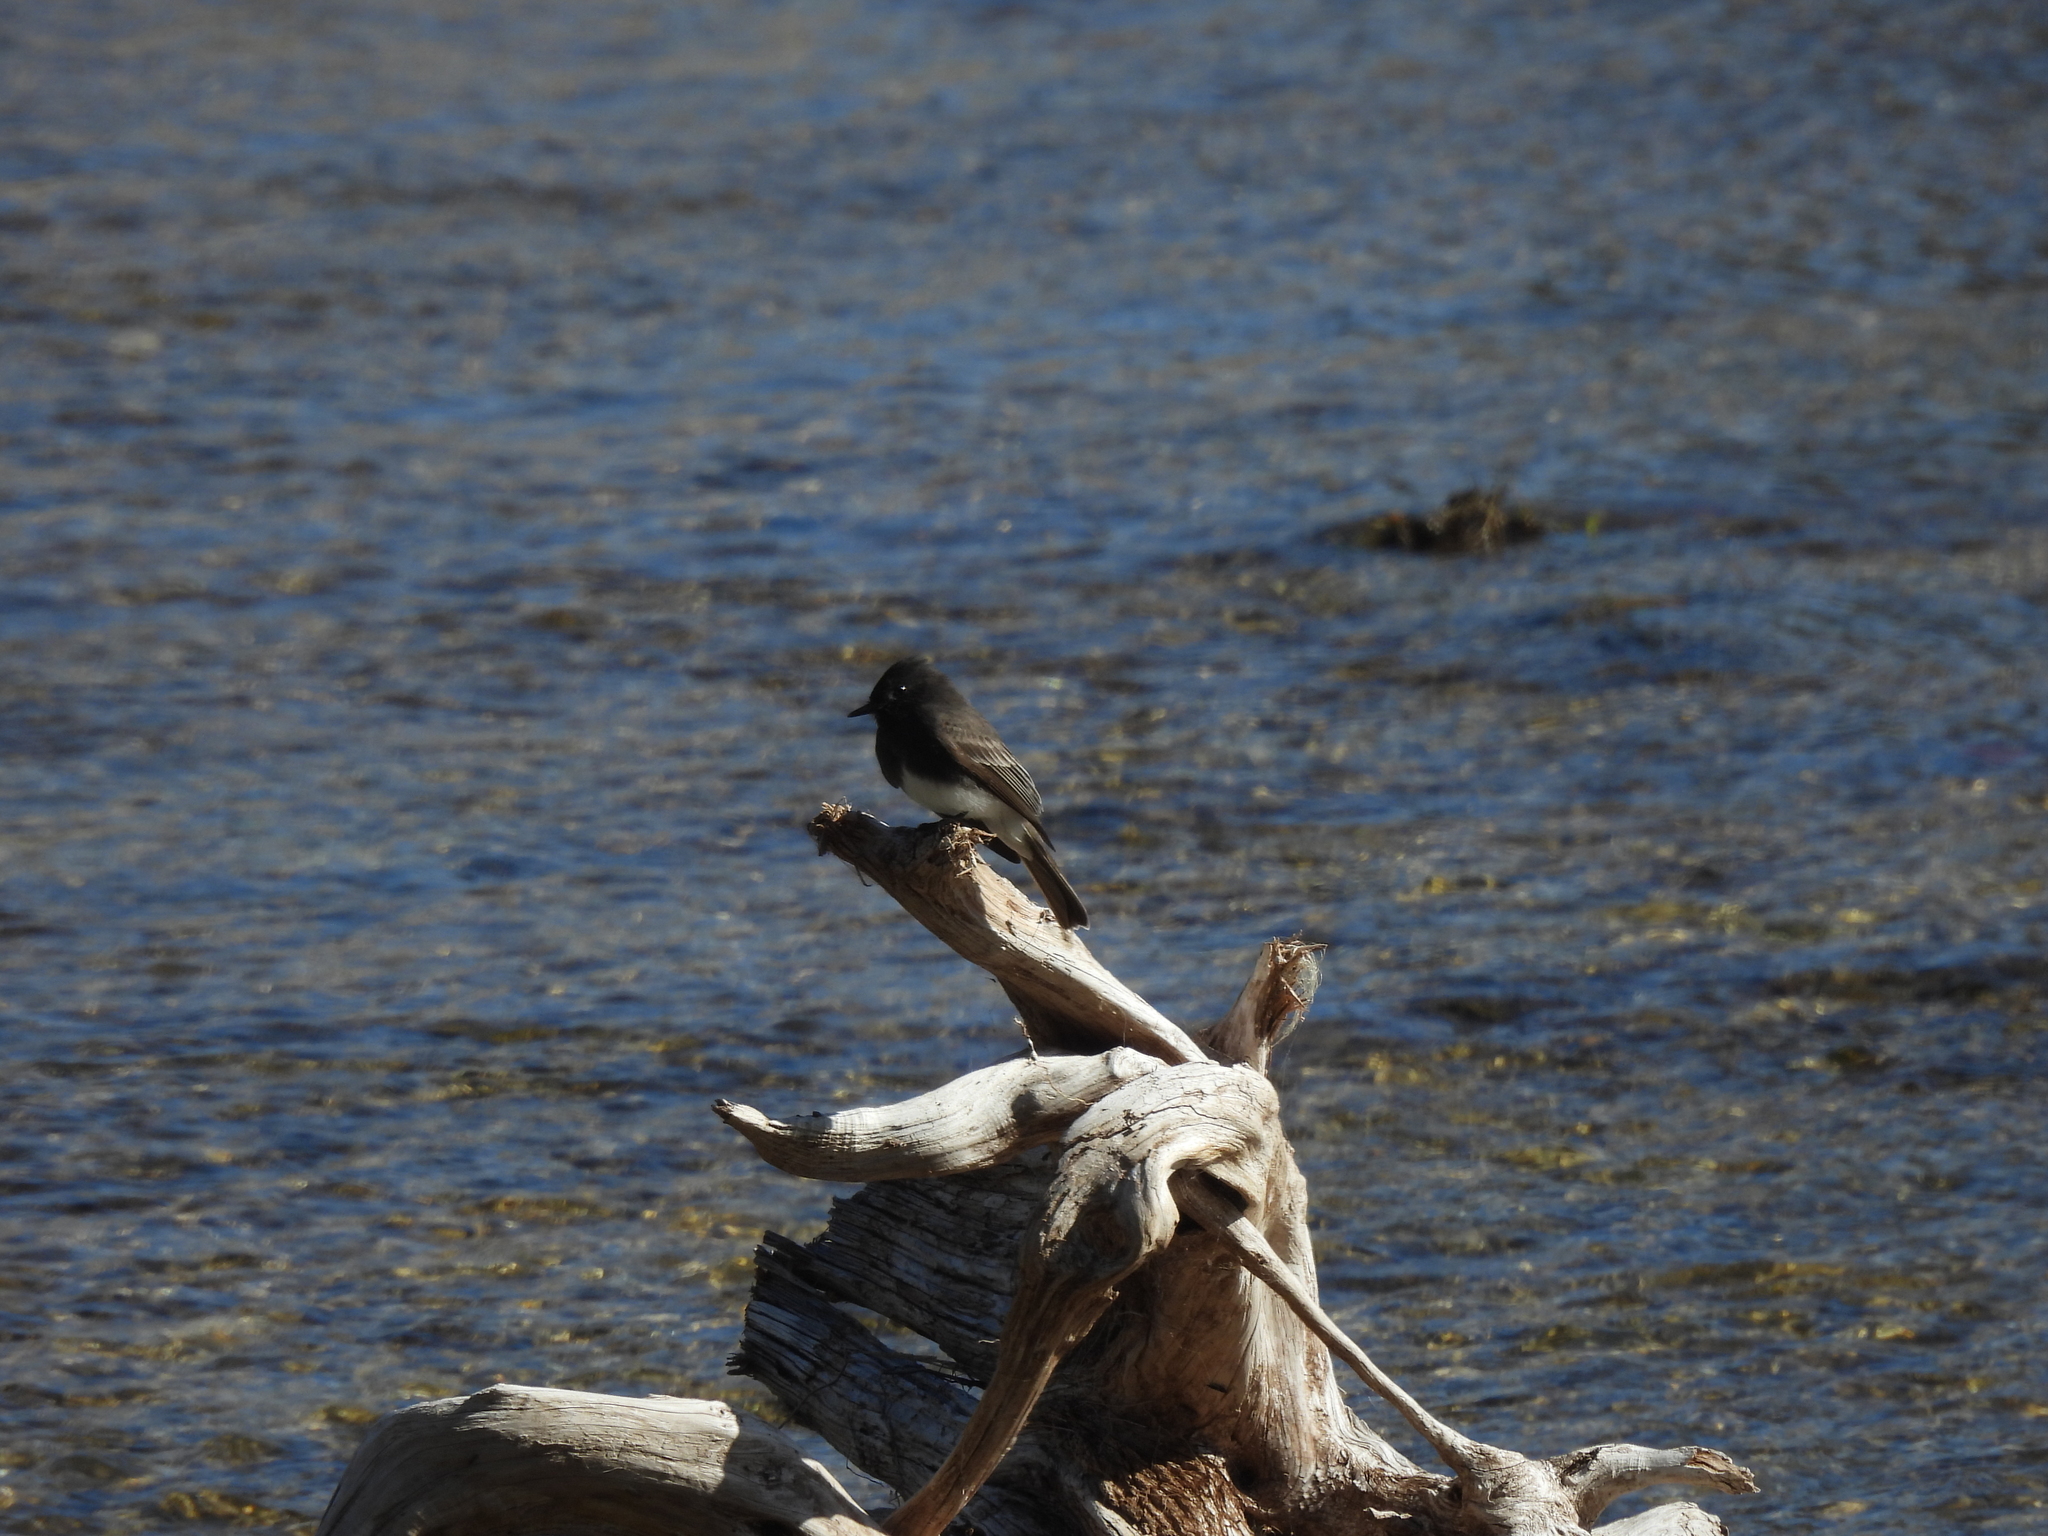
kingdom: Animalia
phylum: Chordata
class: Aves
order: Passeriformes
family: Tyrannidae
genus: Sayornis
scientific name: Sayornis nigricans
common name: Black phoebe
